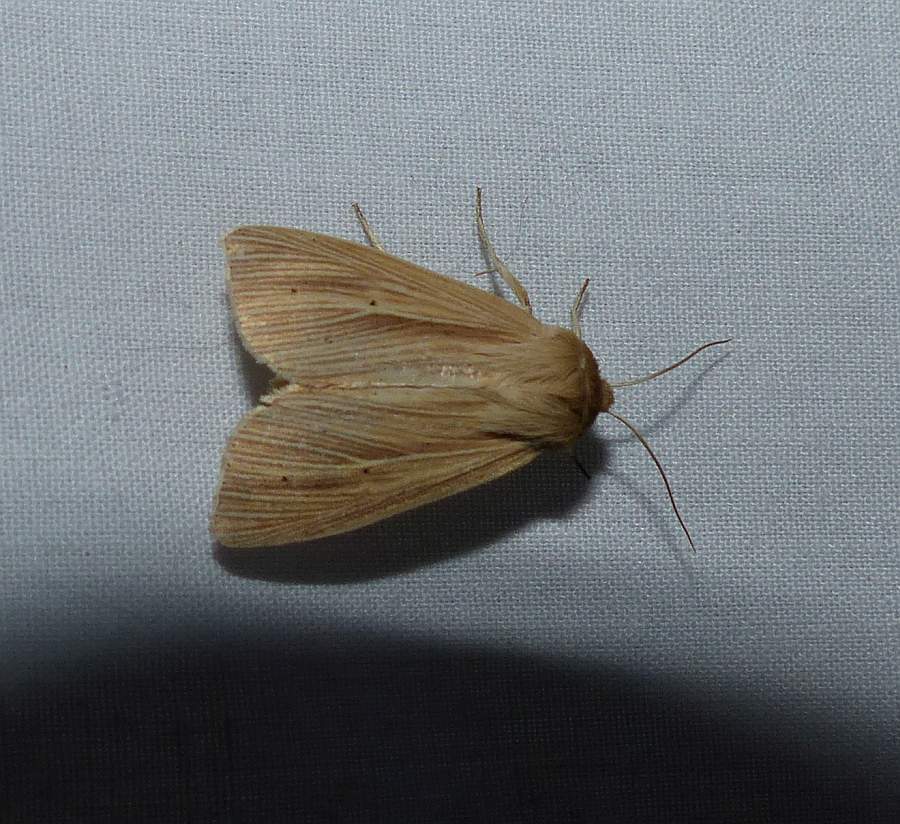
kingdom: Animalia
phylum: Arthropoda
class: Insecta
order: Lepidoptera
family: Noctuidae
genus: Mythimna
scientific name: Mythimna oxygala
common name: Lesser wainscot
